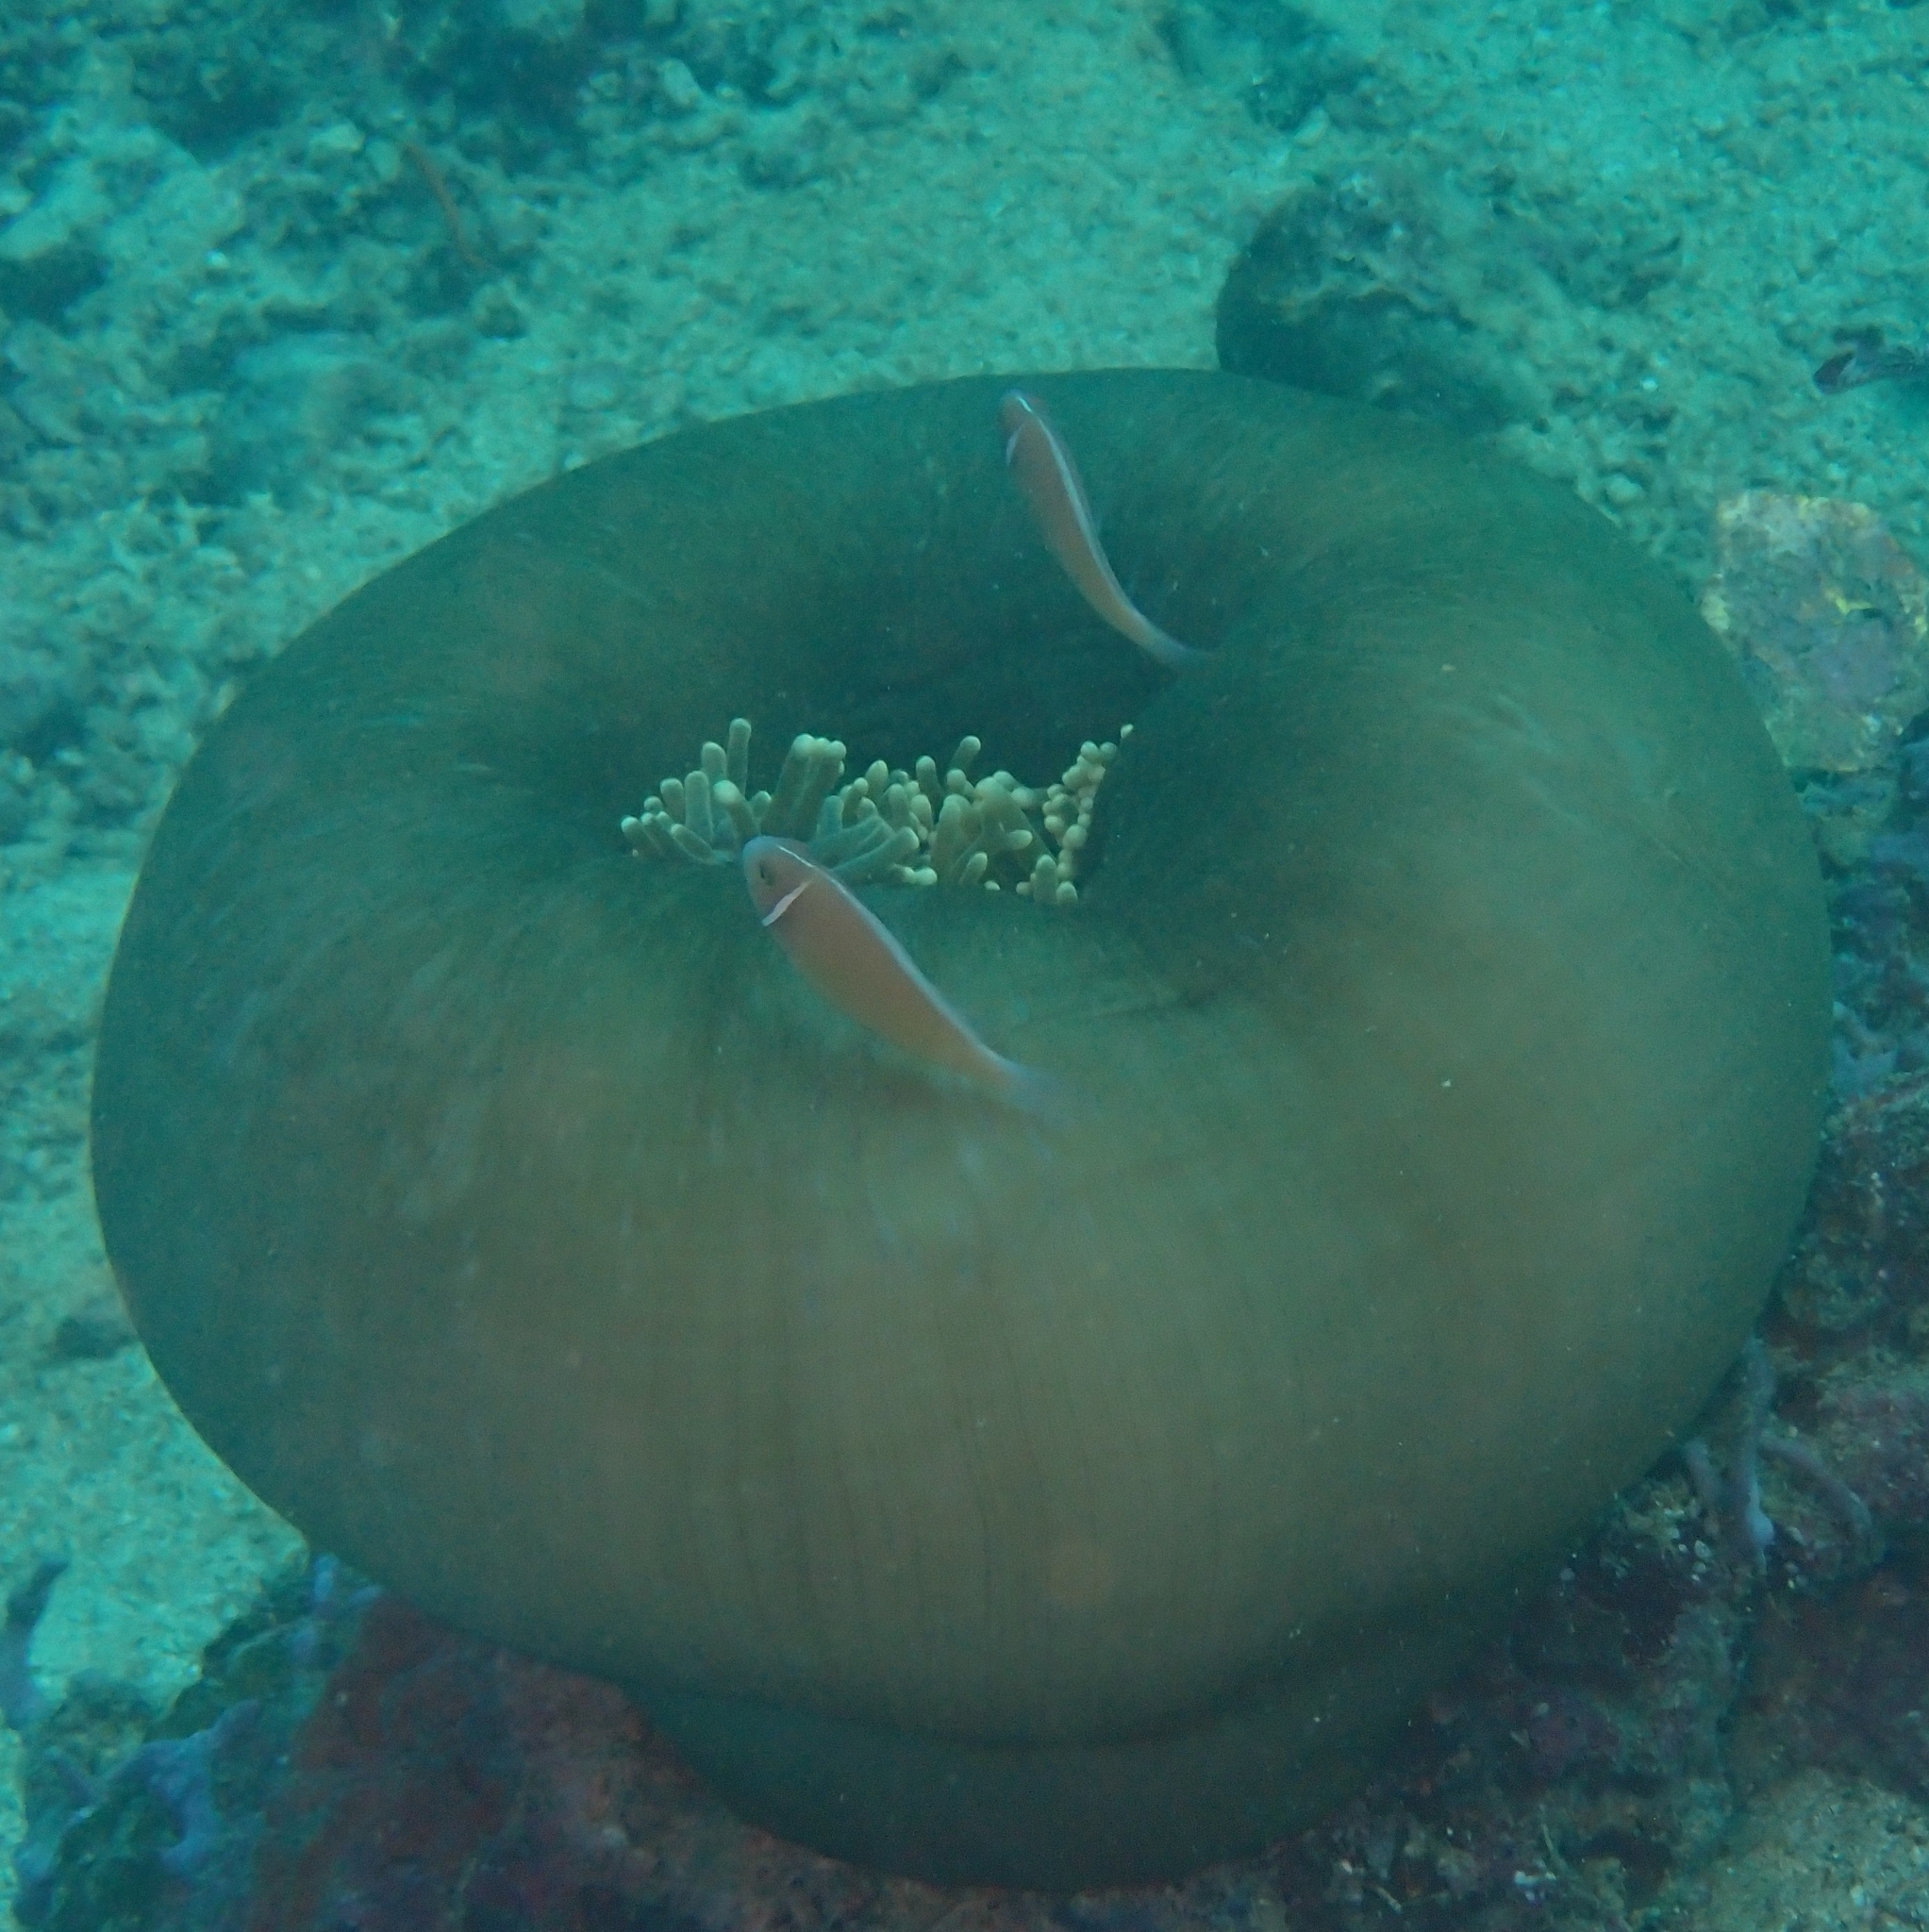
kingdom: Animalia
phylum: Cnidaria
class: Anthozoa
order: Actiniaria
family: Stichodactylidae
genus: Radianthus
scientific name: Radianthus magnifica
